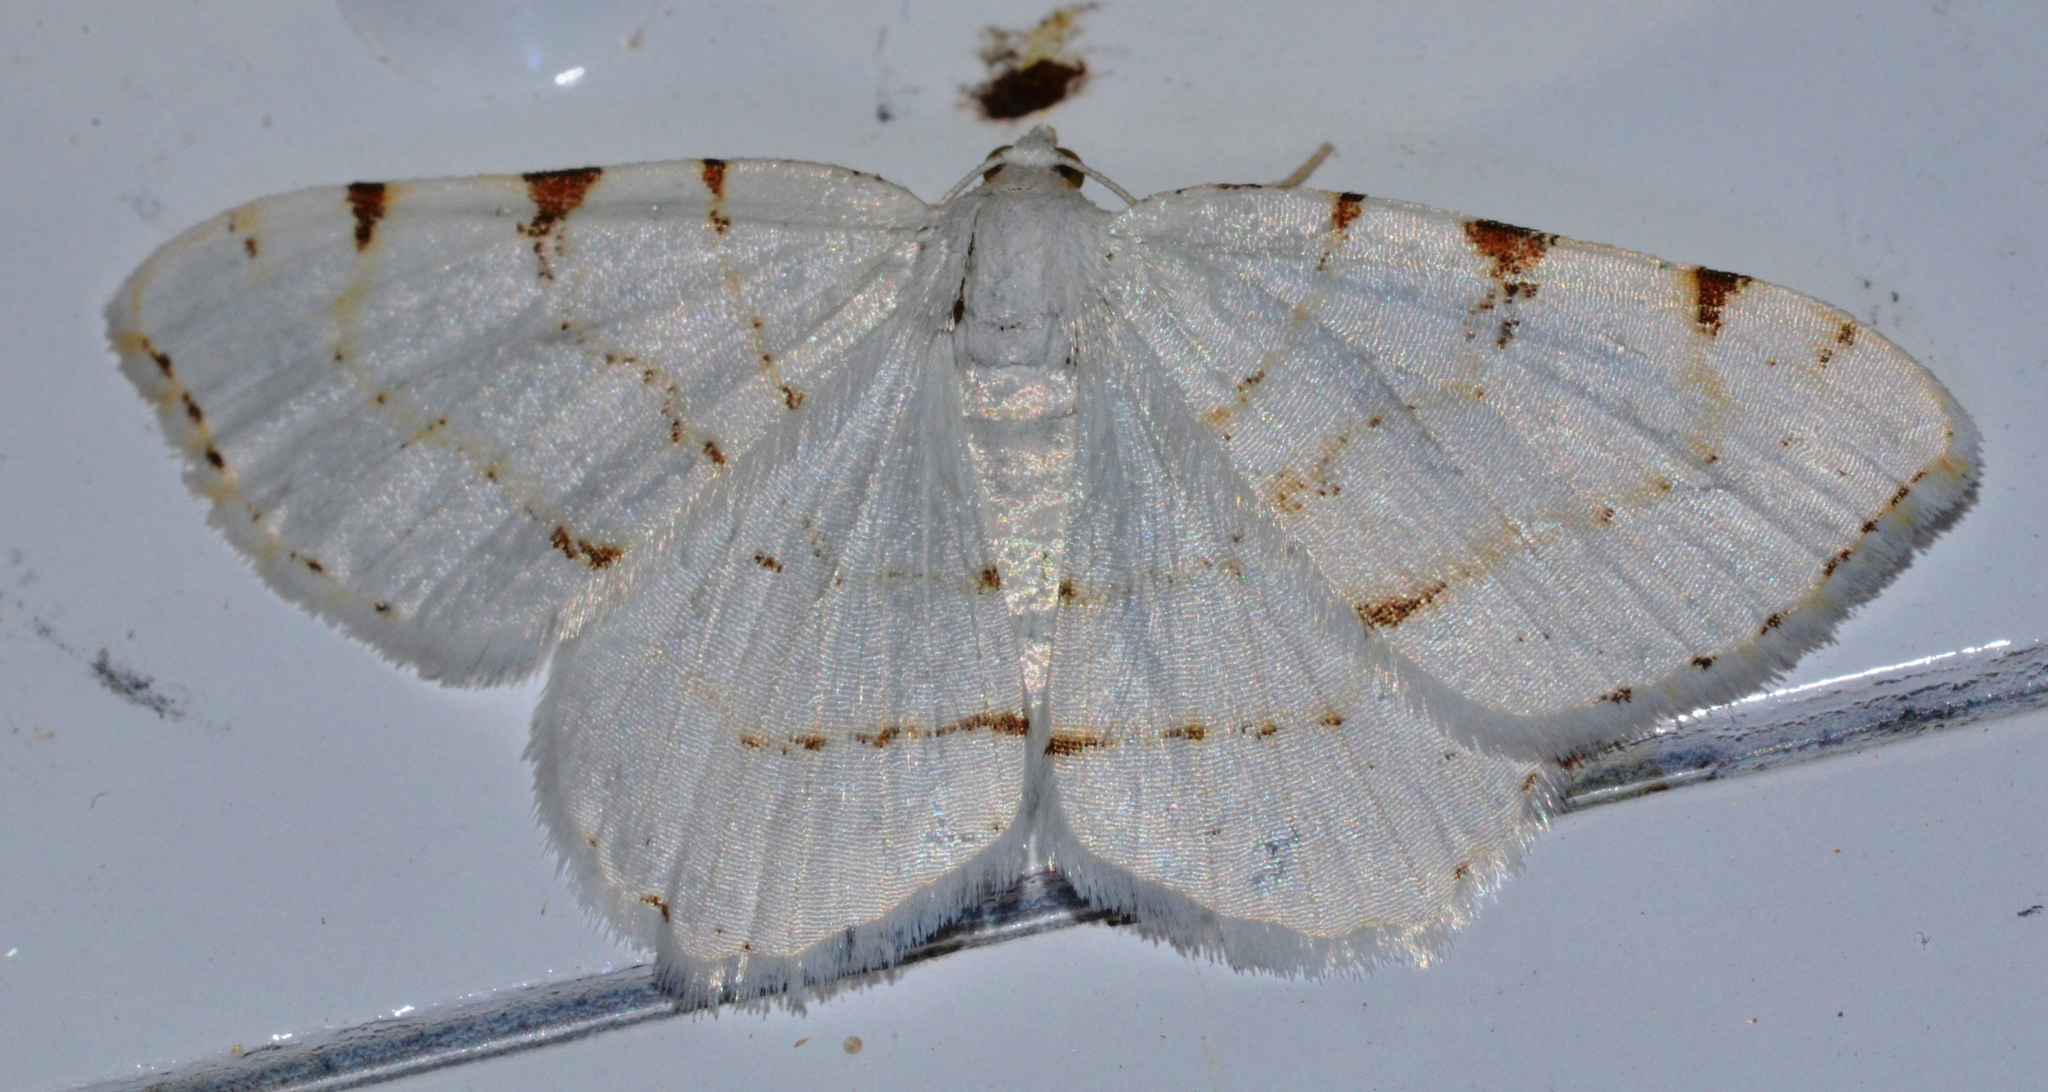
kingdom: Animalia
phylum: Arthropoda
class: Insecta
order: Lepidoptera
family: Geometridae
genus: Macaria
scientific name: Macaria pustularia
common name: Lesser maple spanworm moth
